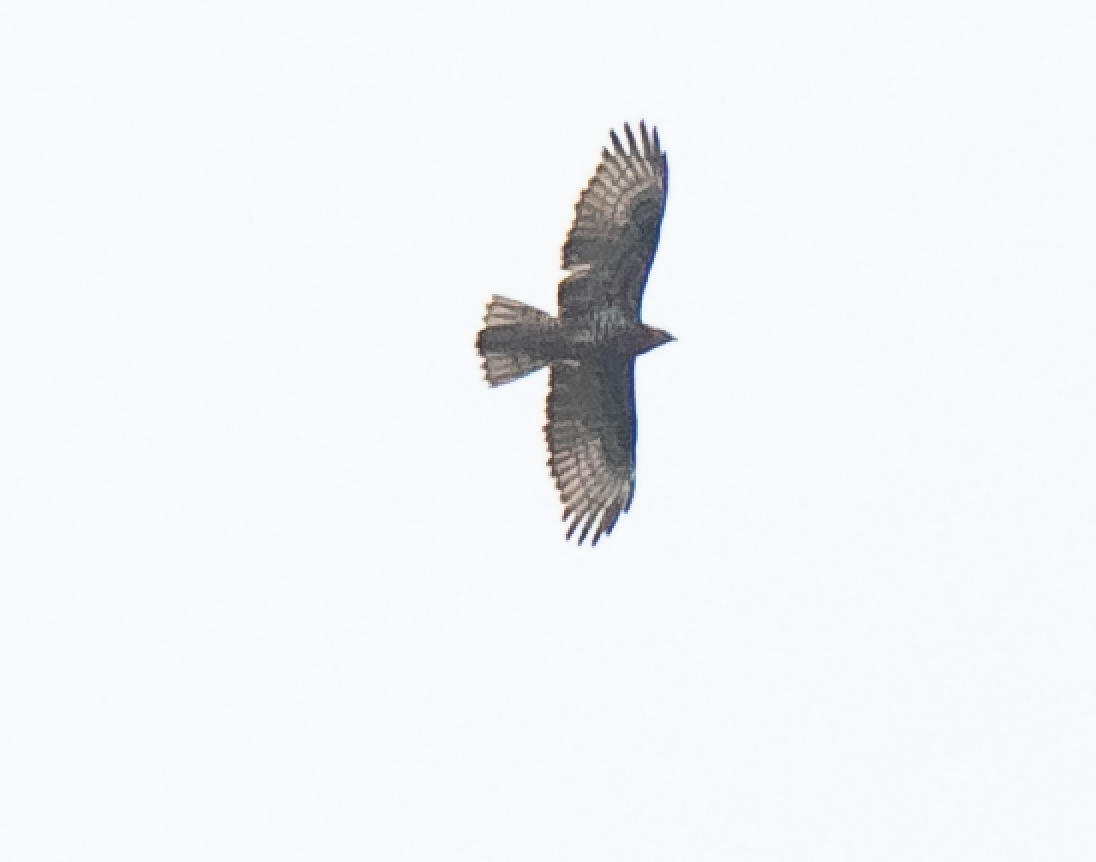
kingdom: Animalia
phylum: Chordata
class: Aves
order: Accipitriformes
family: Accipitridae
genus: Pernis
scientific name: Pernis apivorus
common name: European honey buzzard
